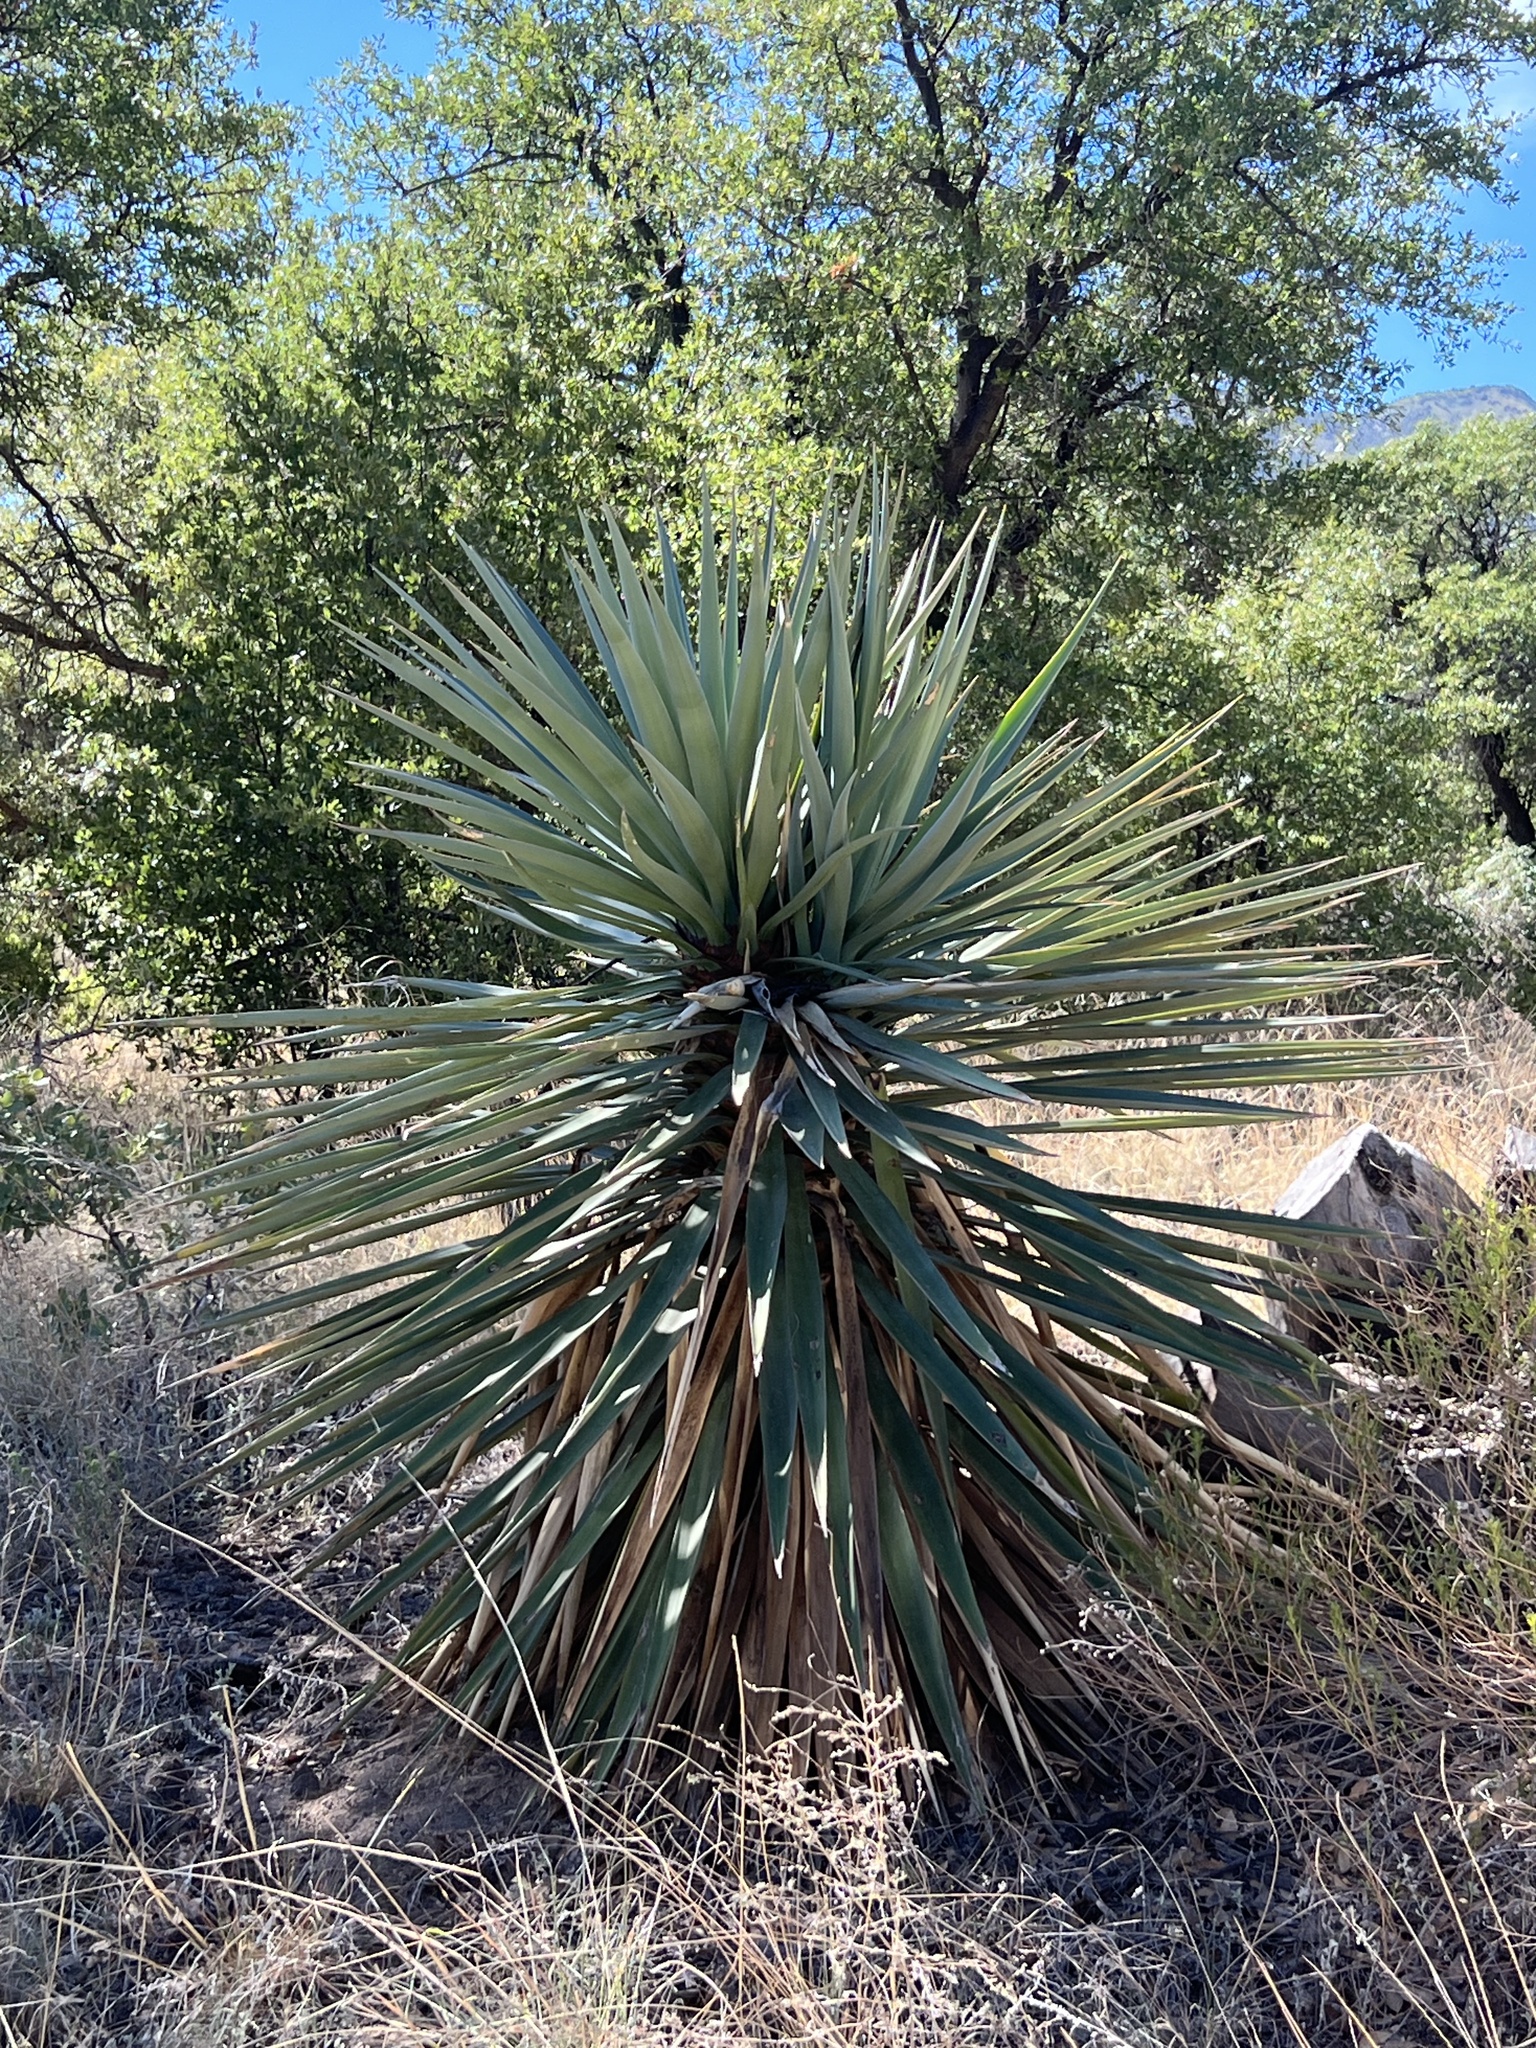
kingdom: Plantae
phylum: Tracheophyta
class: Liliopsida
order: Asparagales
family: Asparagaceae
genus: Yucca
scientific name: Yucca schottii
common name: Hoary yucca
